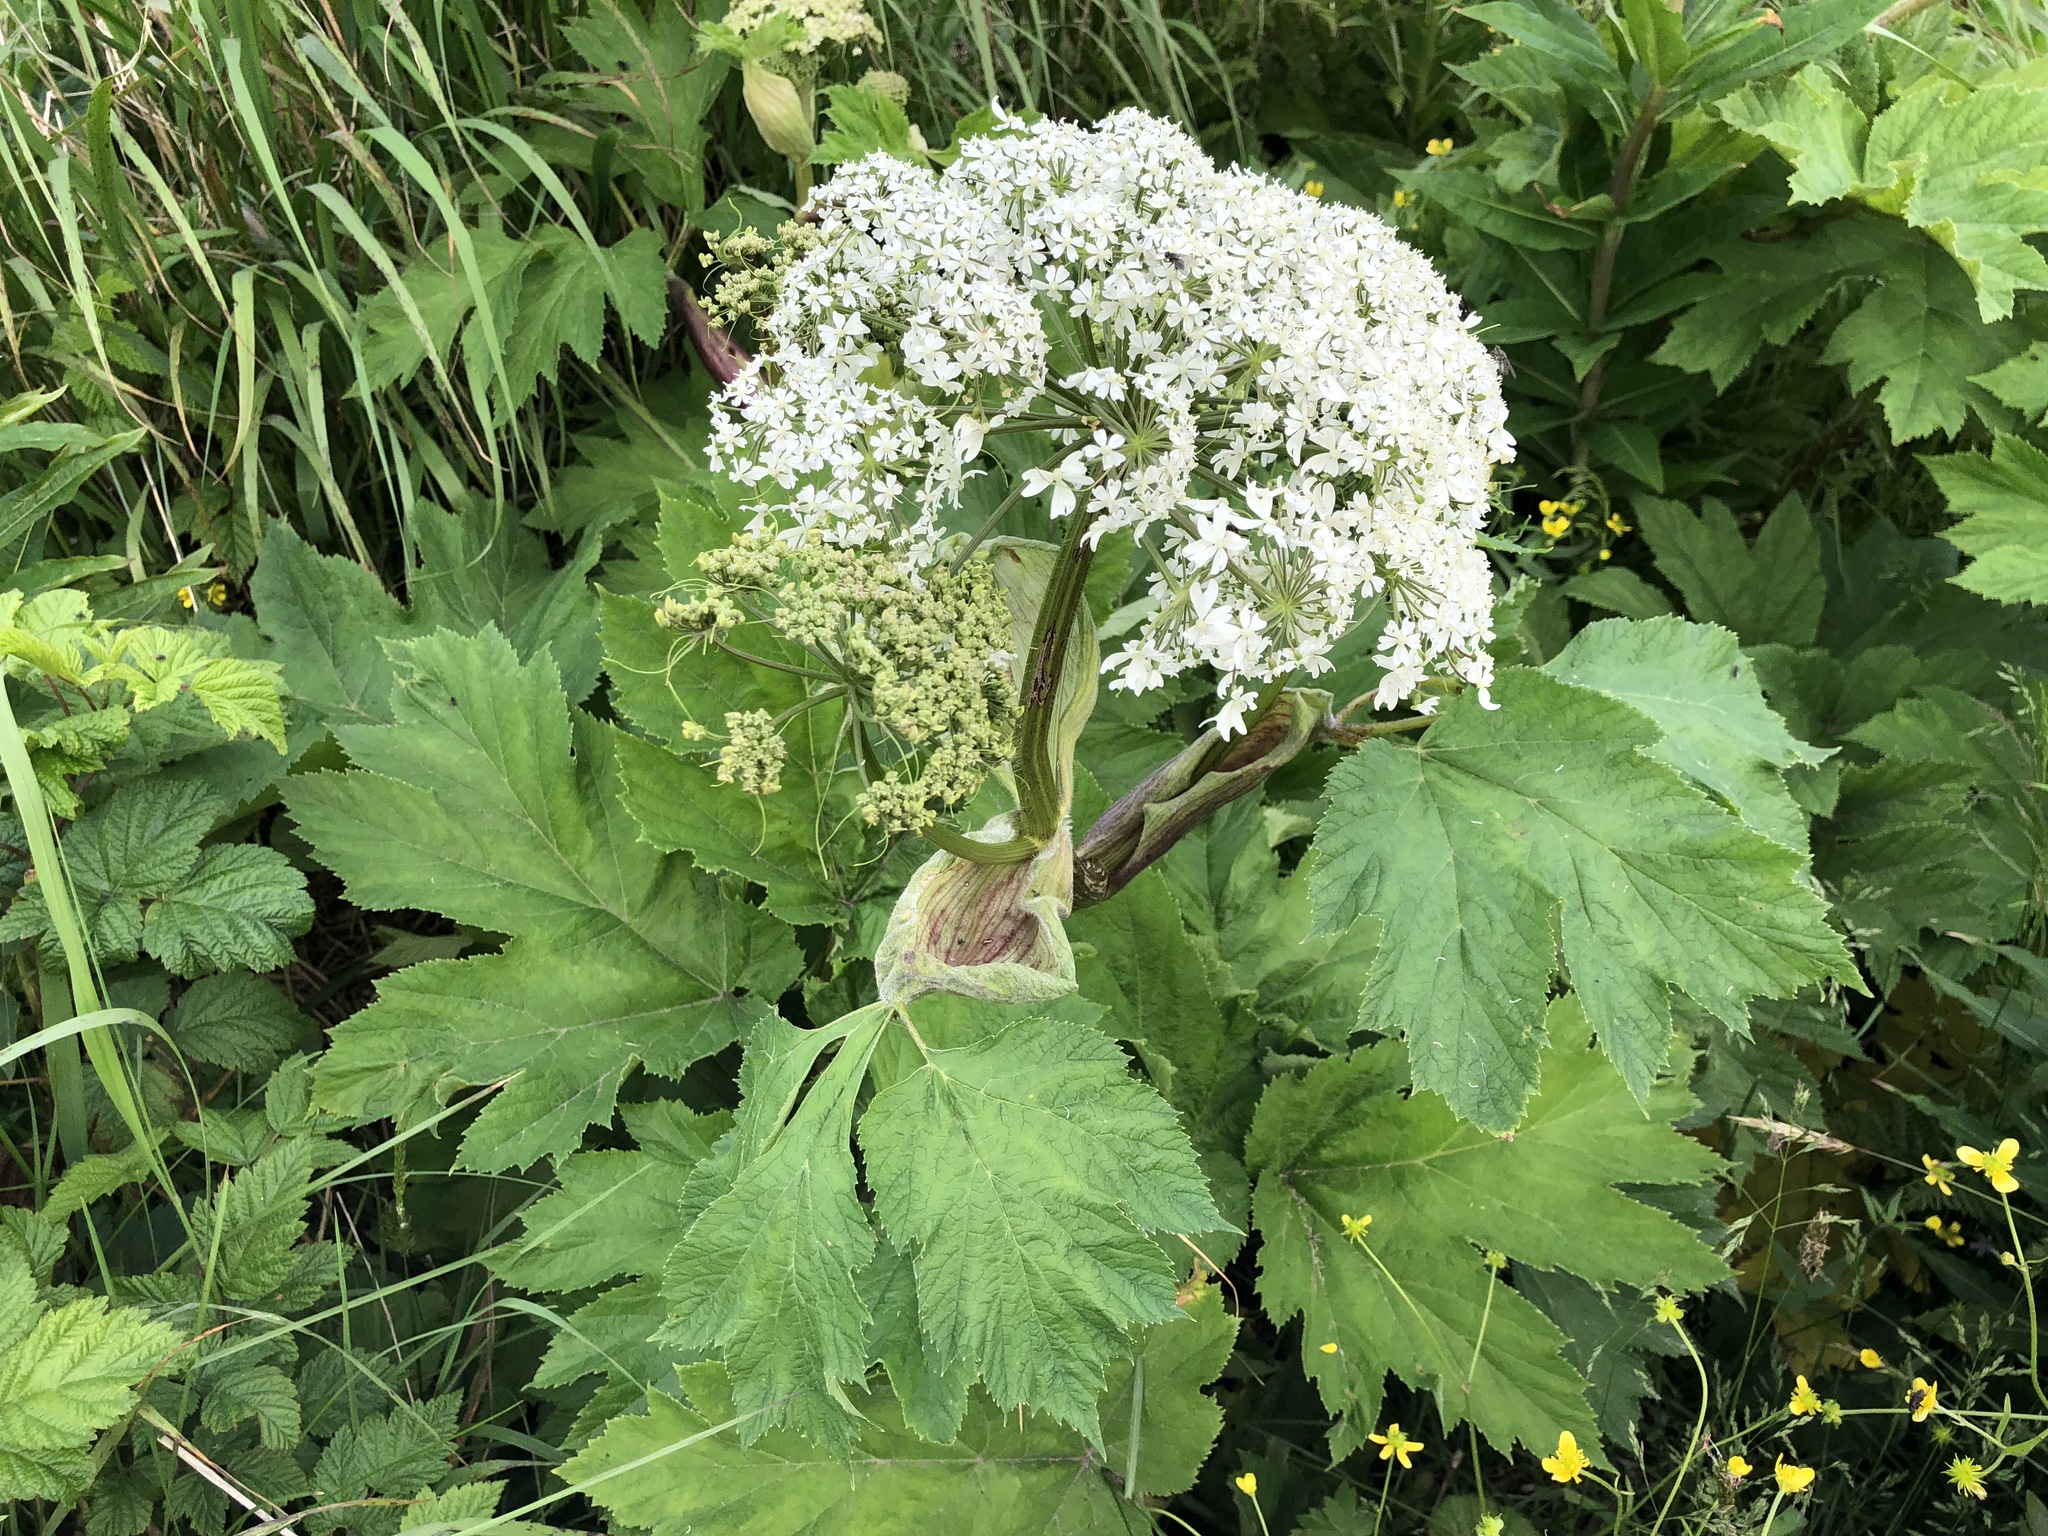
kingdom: Plantae
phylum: Tracheophyta
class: Magnoliopsida
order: Apiales
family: Apiaceae
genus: Heracleum
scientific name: Heracleum maximum
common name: American cow parsnip
